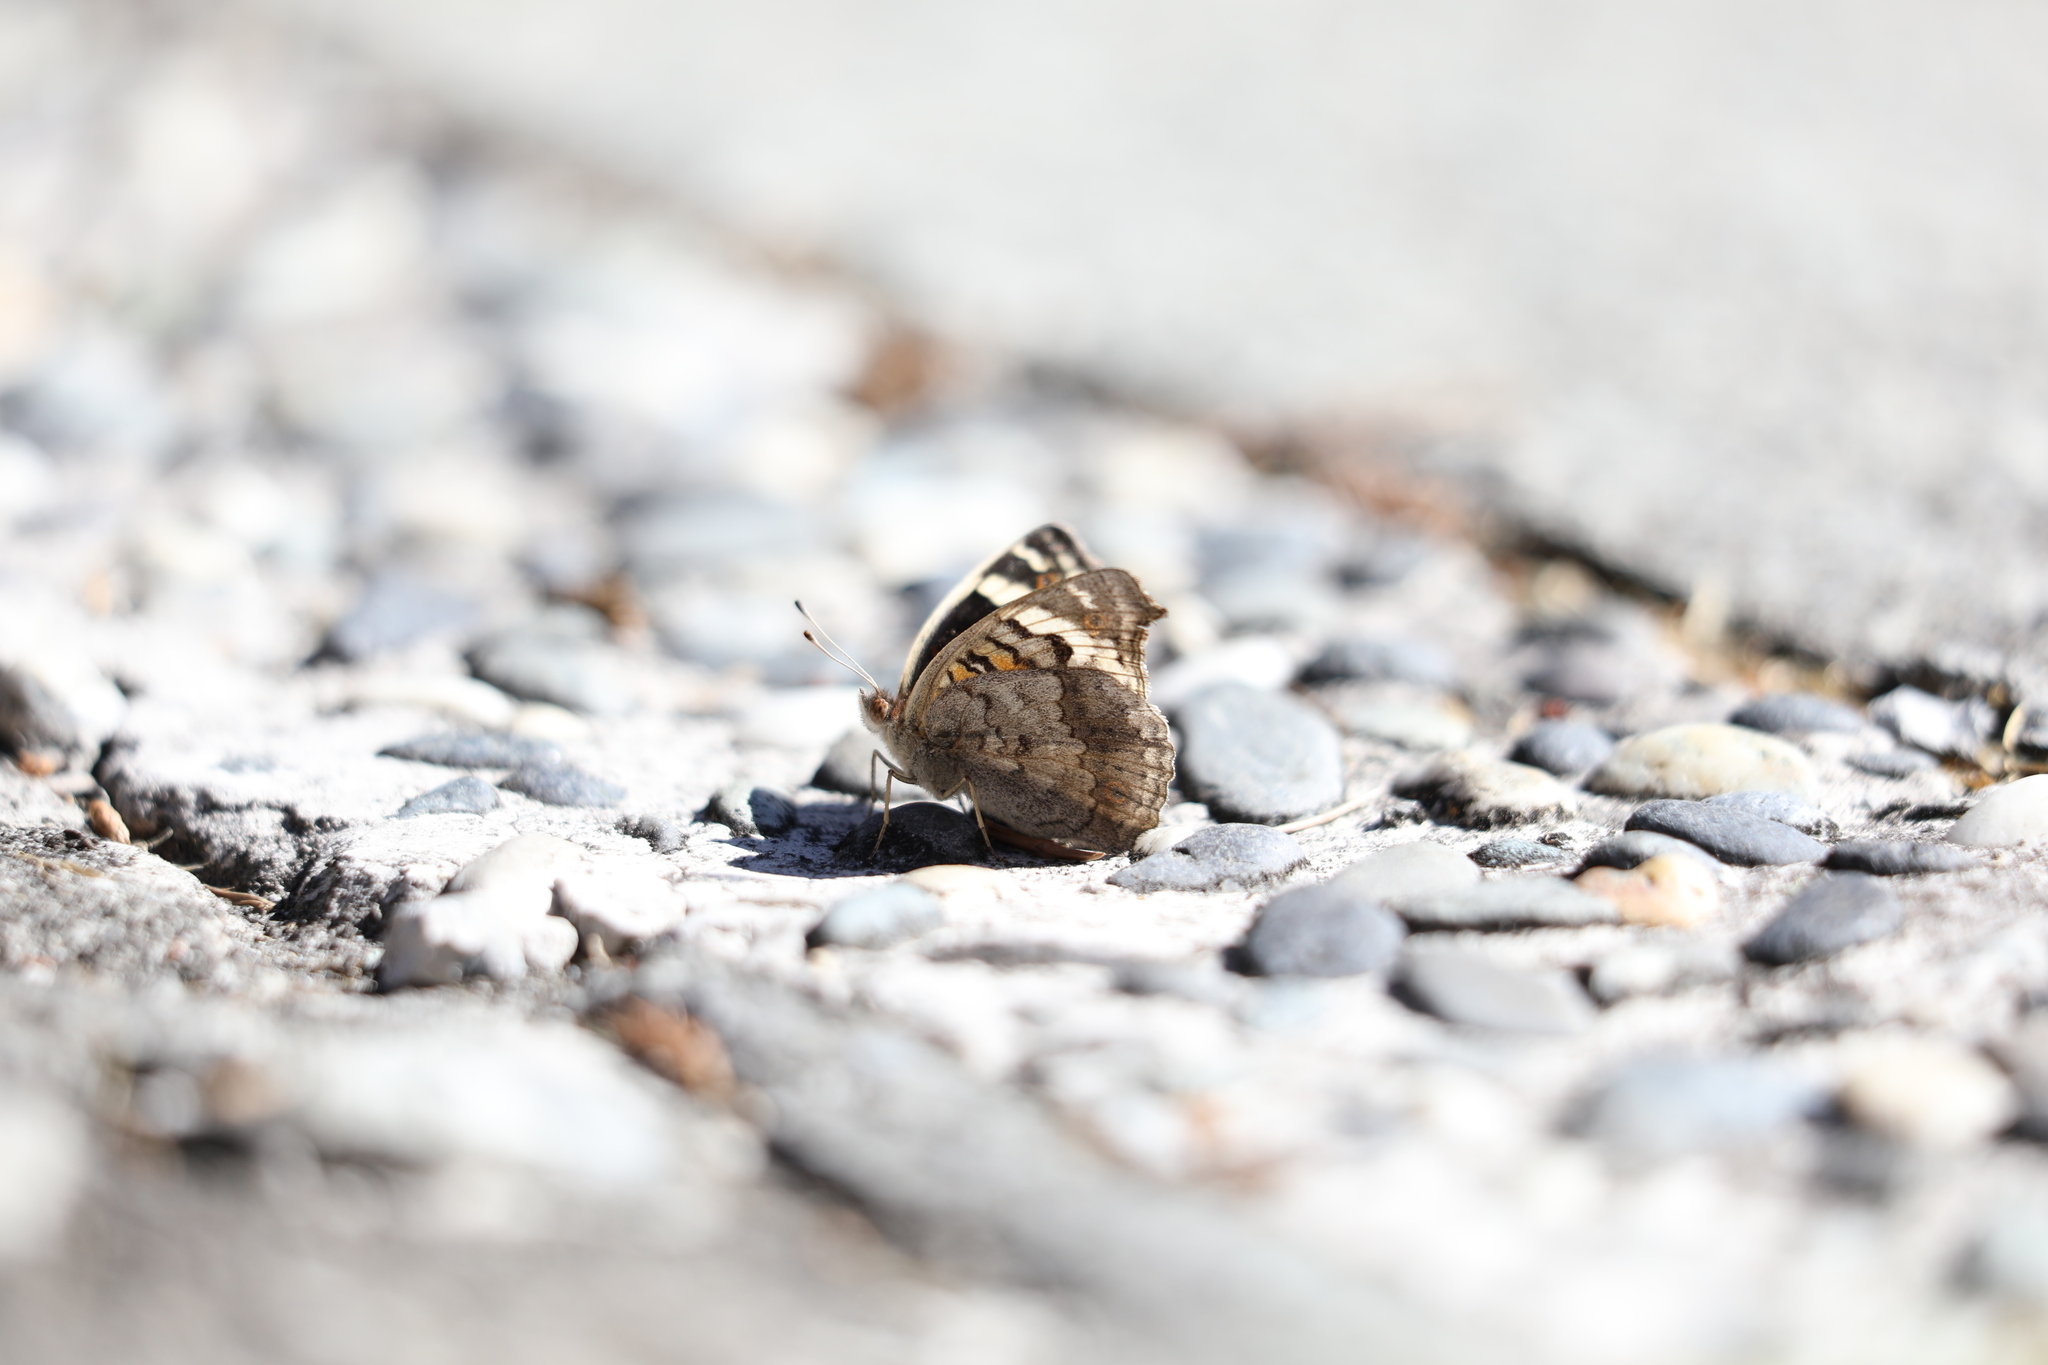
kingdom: Animalia
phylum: Arthropoda
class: Insecta
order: Lepidoptera
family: Nymphalidae
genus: Junonia
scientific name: Junonia orithya
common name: Blue pansy
